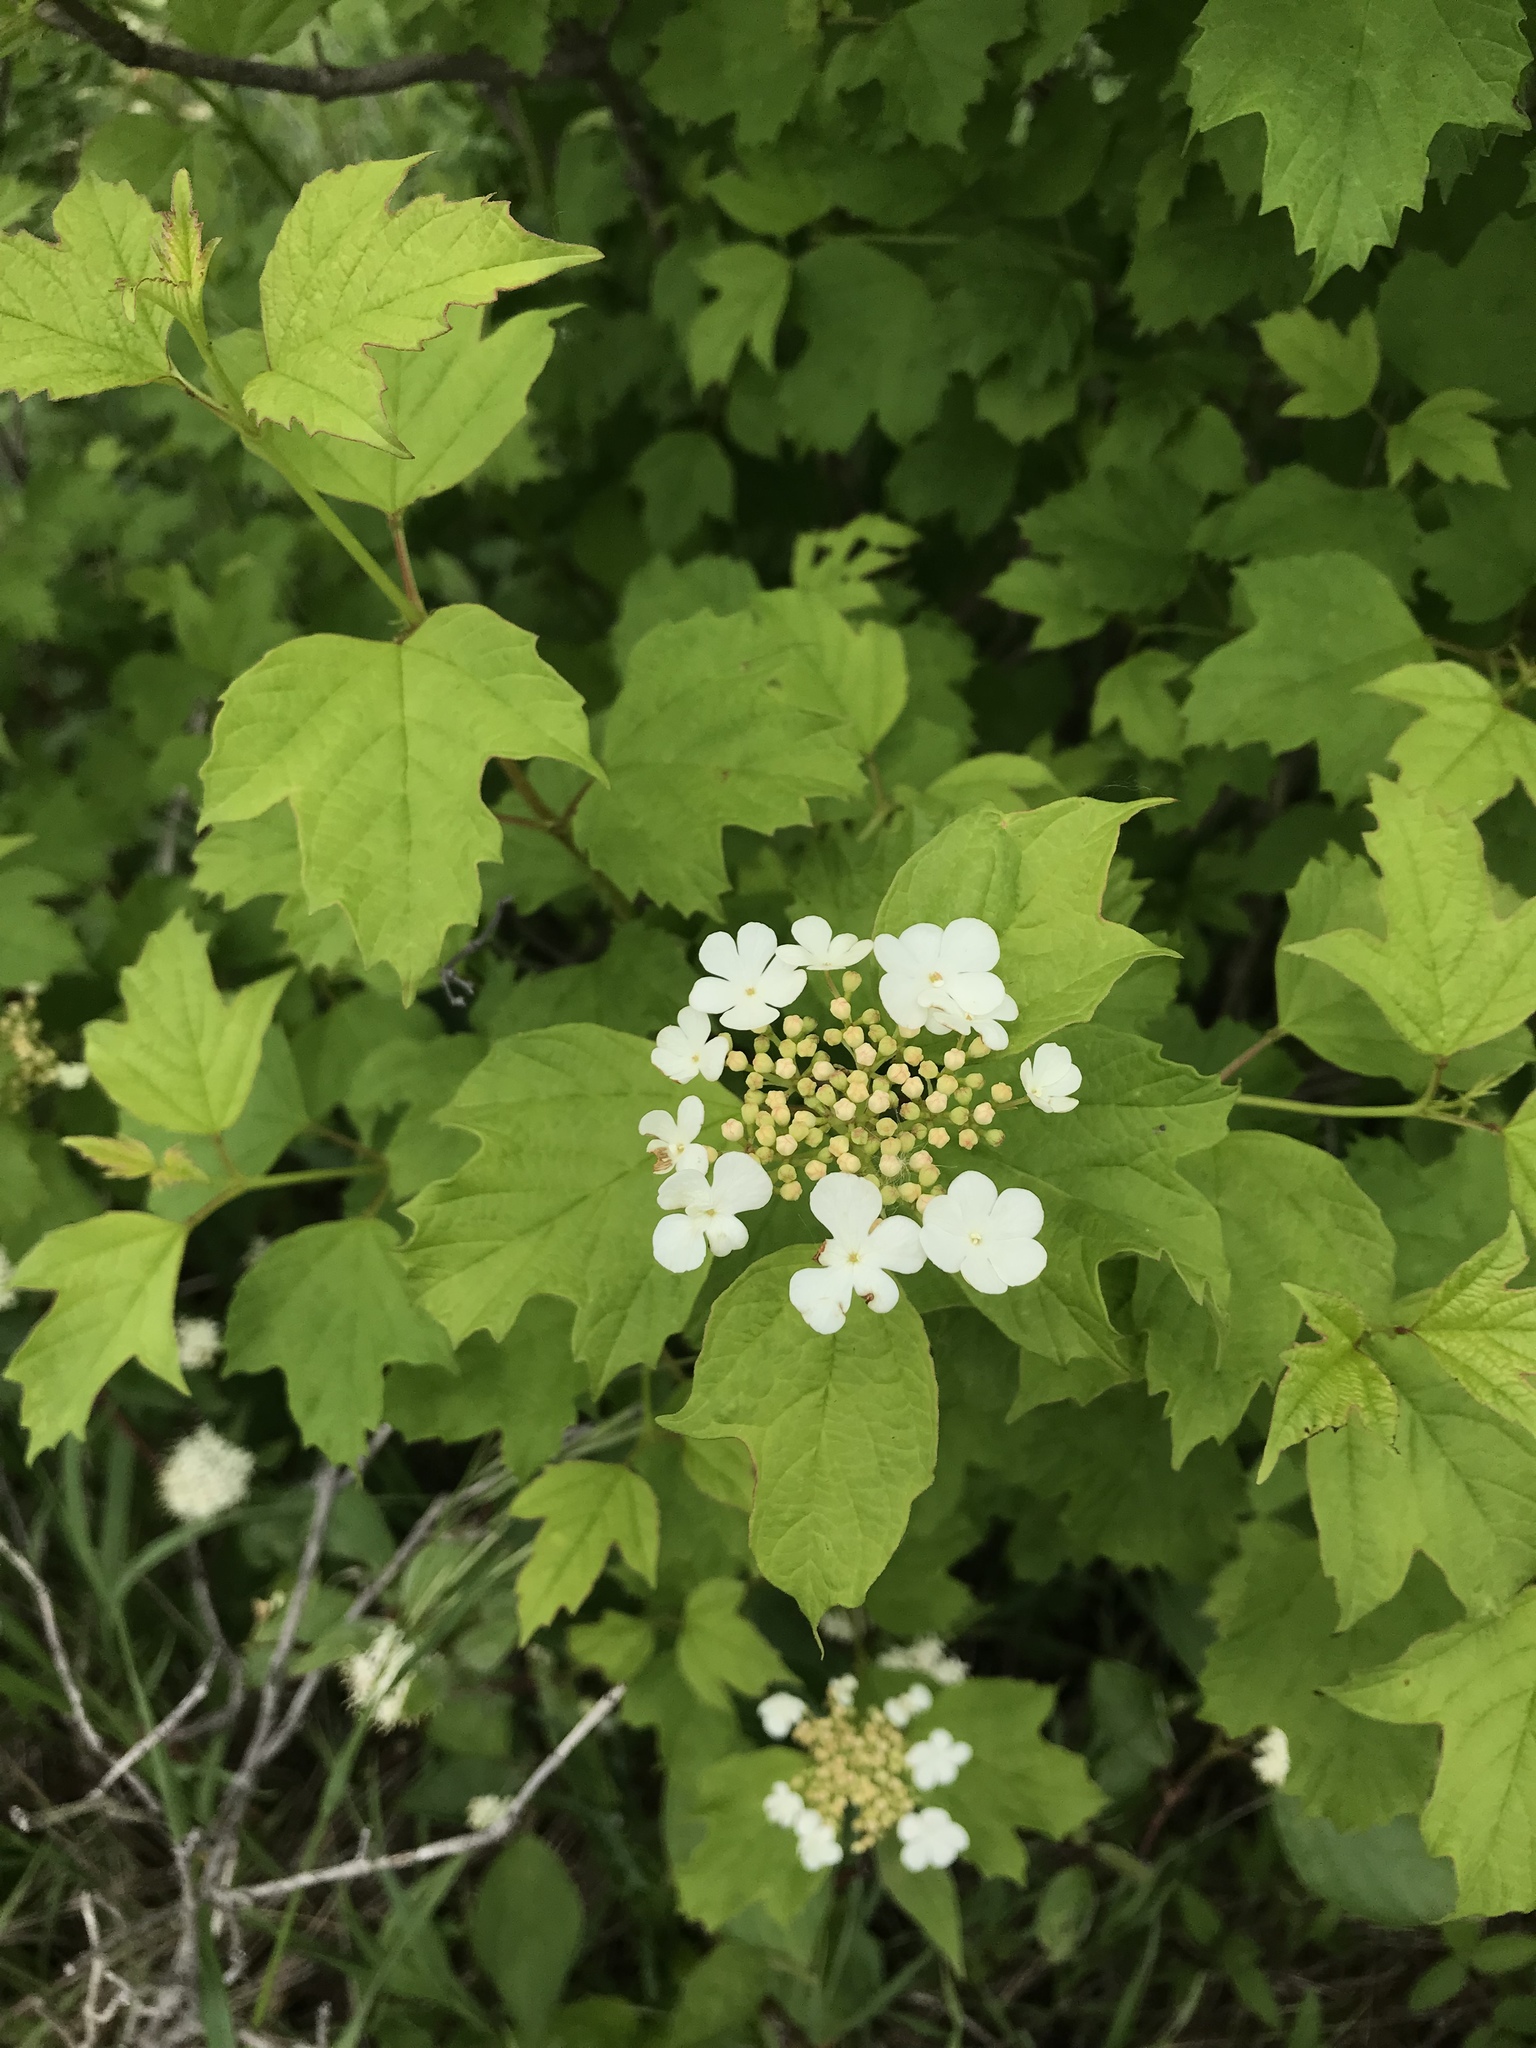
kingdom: Plantae
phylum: Tracheophyta
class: Magnoliopsida
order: Dipsacales
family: Viburnaceae
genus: Viburnum
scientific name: Viburnum opulus
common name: Guelder-rose
